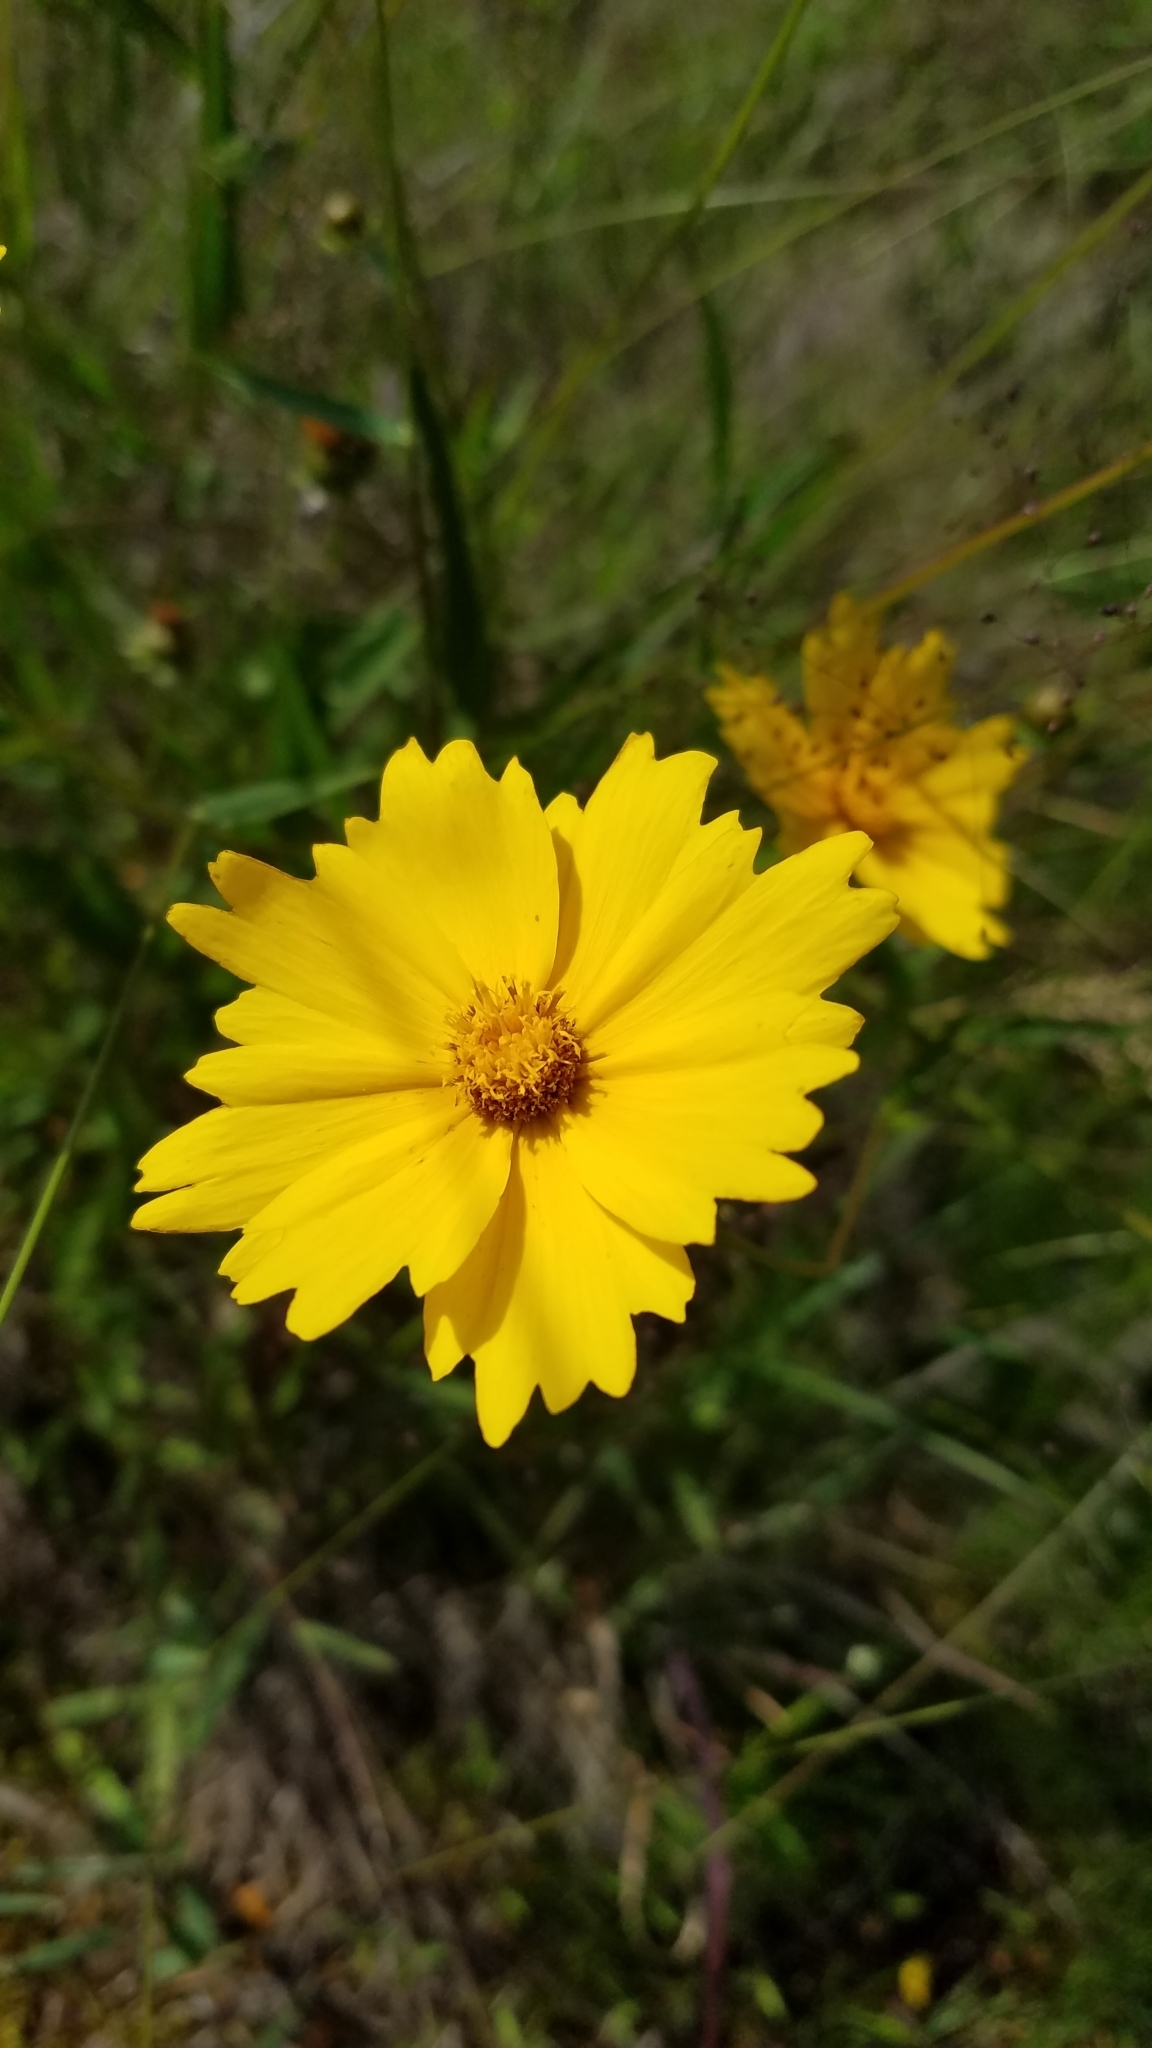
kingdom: Plantae
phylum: Tracheophyta
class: Magnoliopsida
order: Asterales
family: Asteraceae
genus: Coreopsis
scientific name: Coreopsis lanceolata
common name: Garden coreopsis
